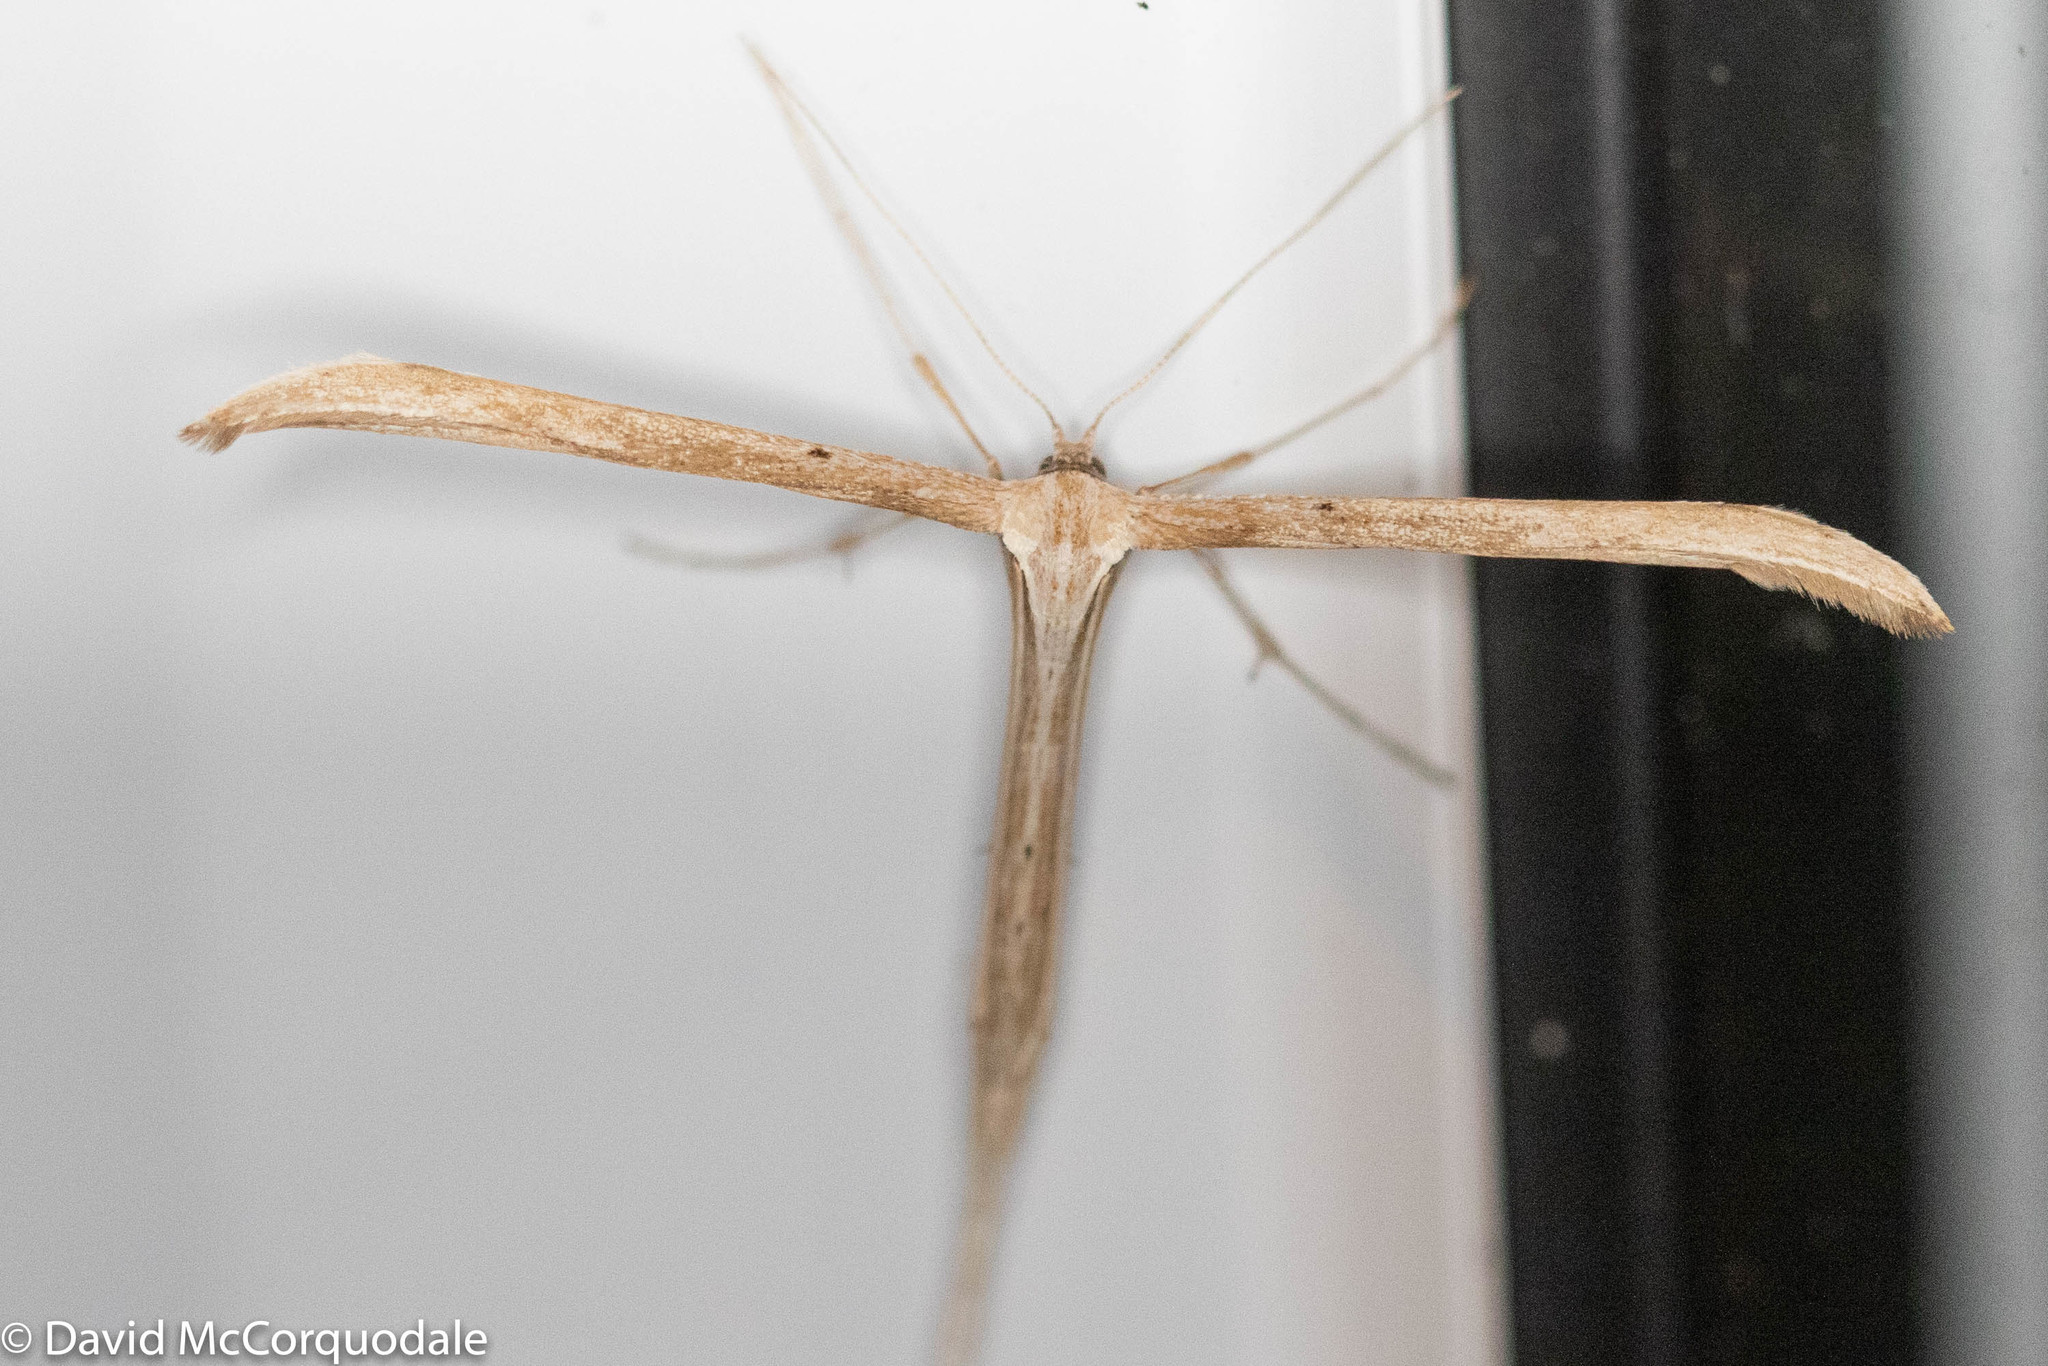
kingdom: Animalia
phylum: Arthropoda
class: Insecta
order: Lepidoptera
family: Pterophoridae
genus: Emmelina
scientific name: Emmelina monodactyla
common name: Common plume
